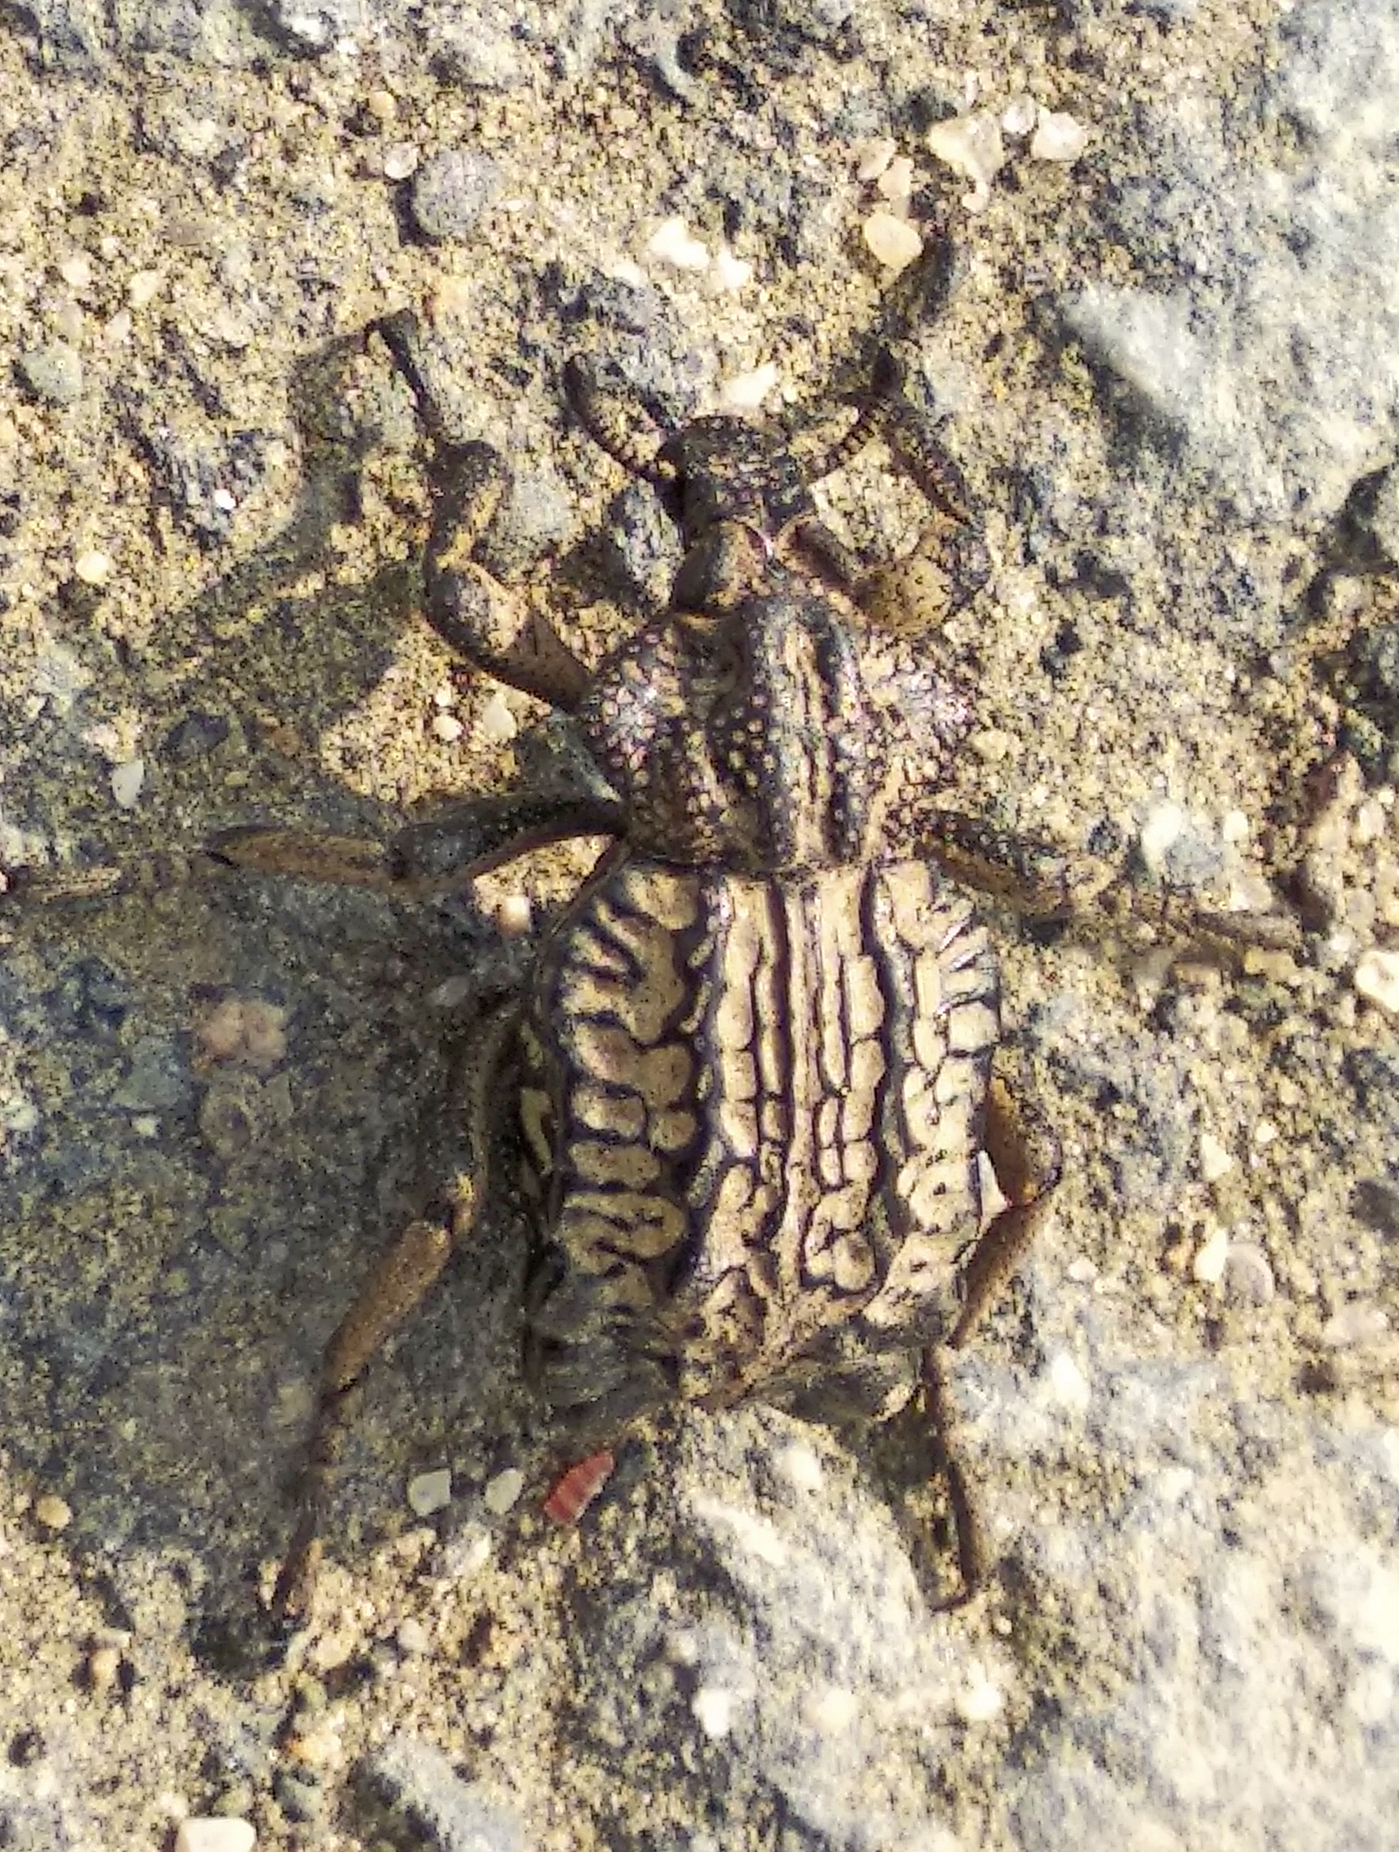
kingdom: Animalia
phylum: Arthropoda
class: Insecta
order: Coleoptera
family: Brachyceridae
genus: Brachycerus
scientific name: Brachycerus undatus
